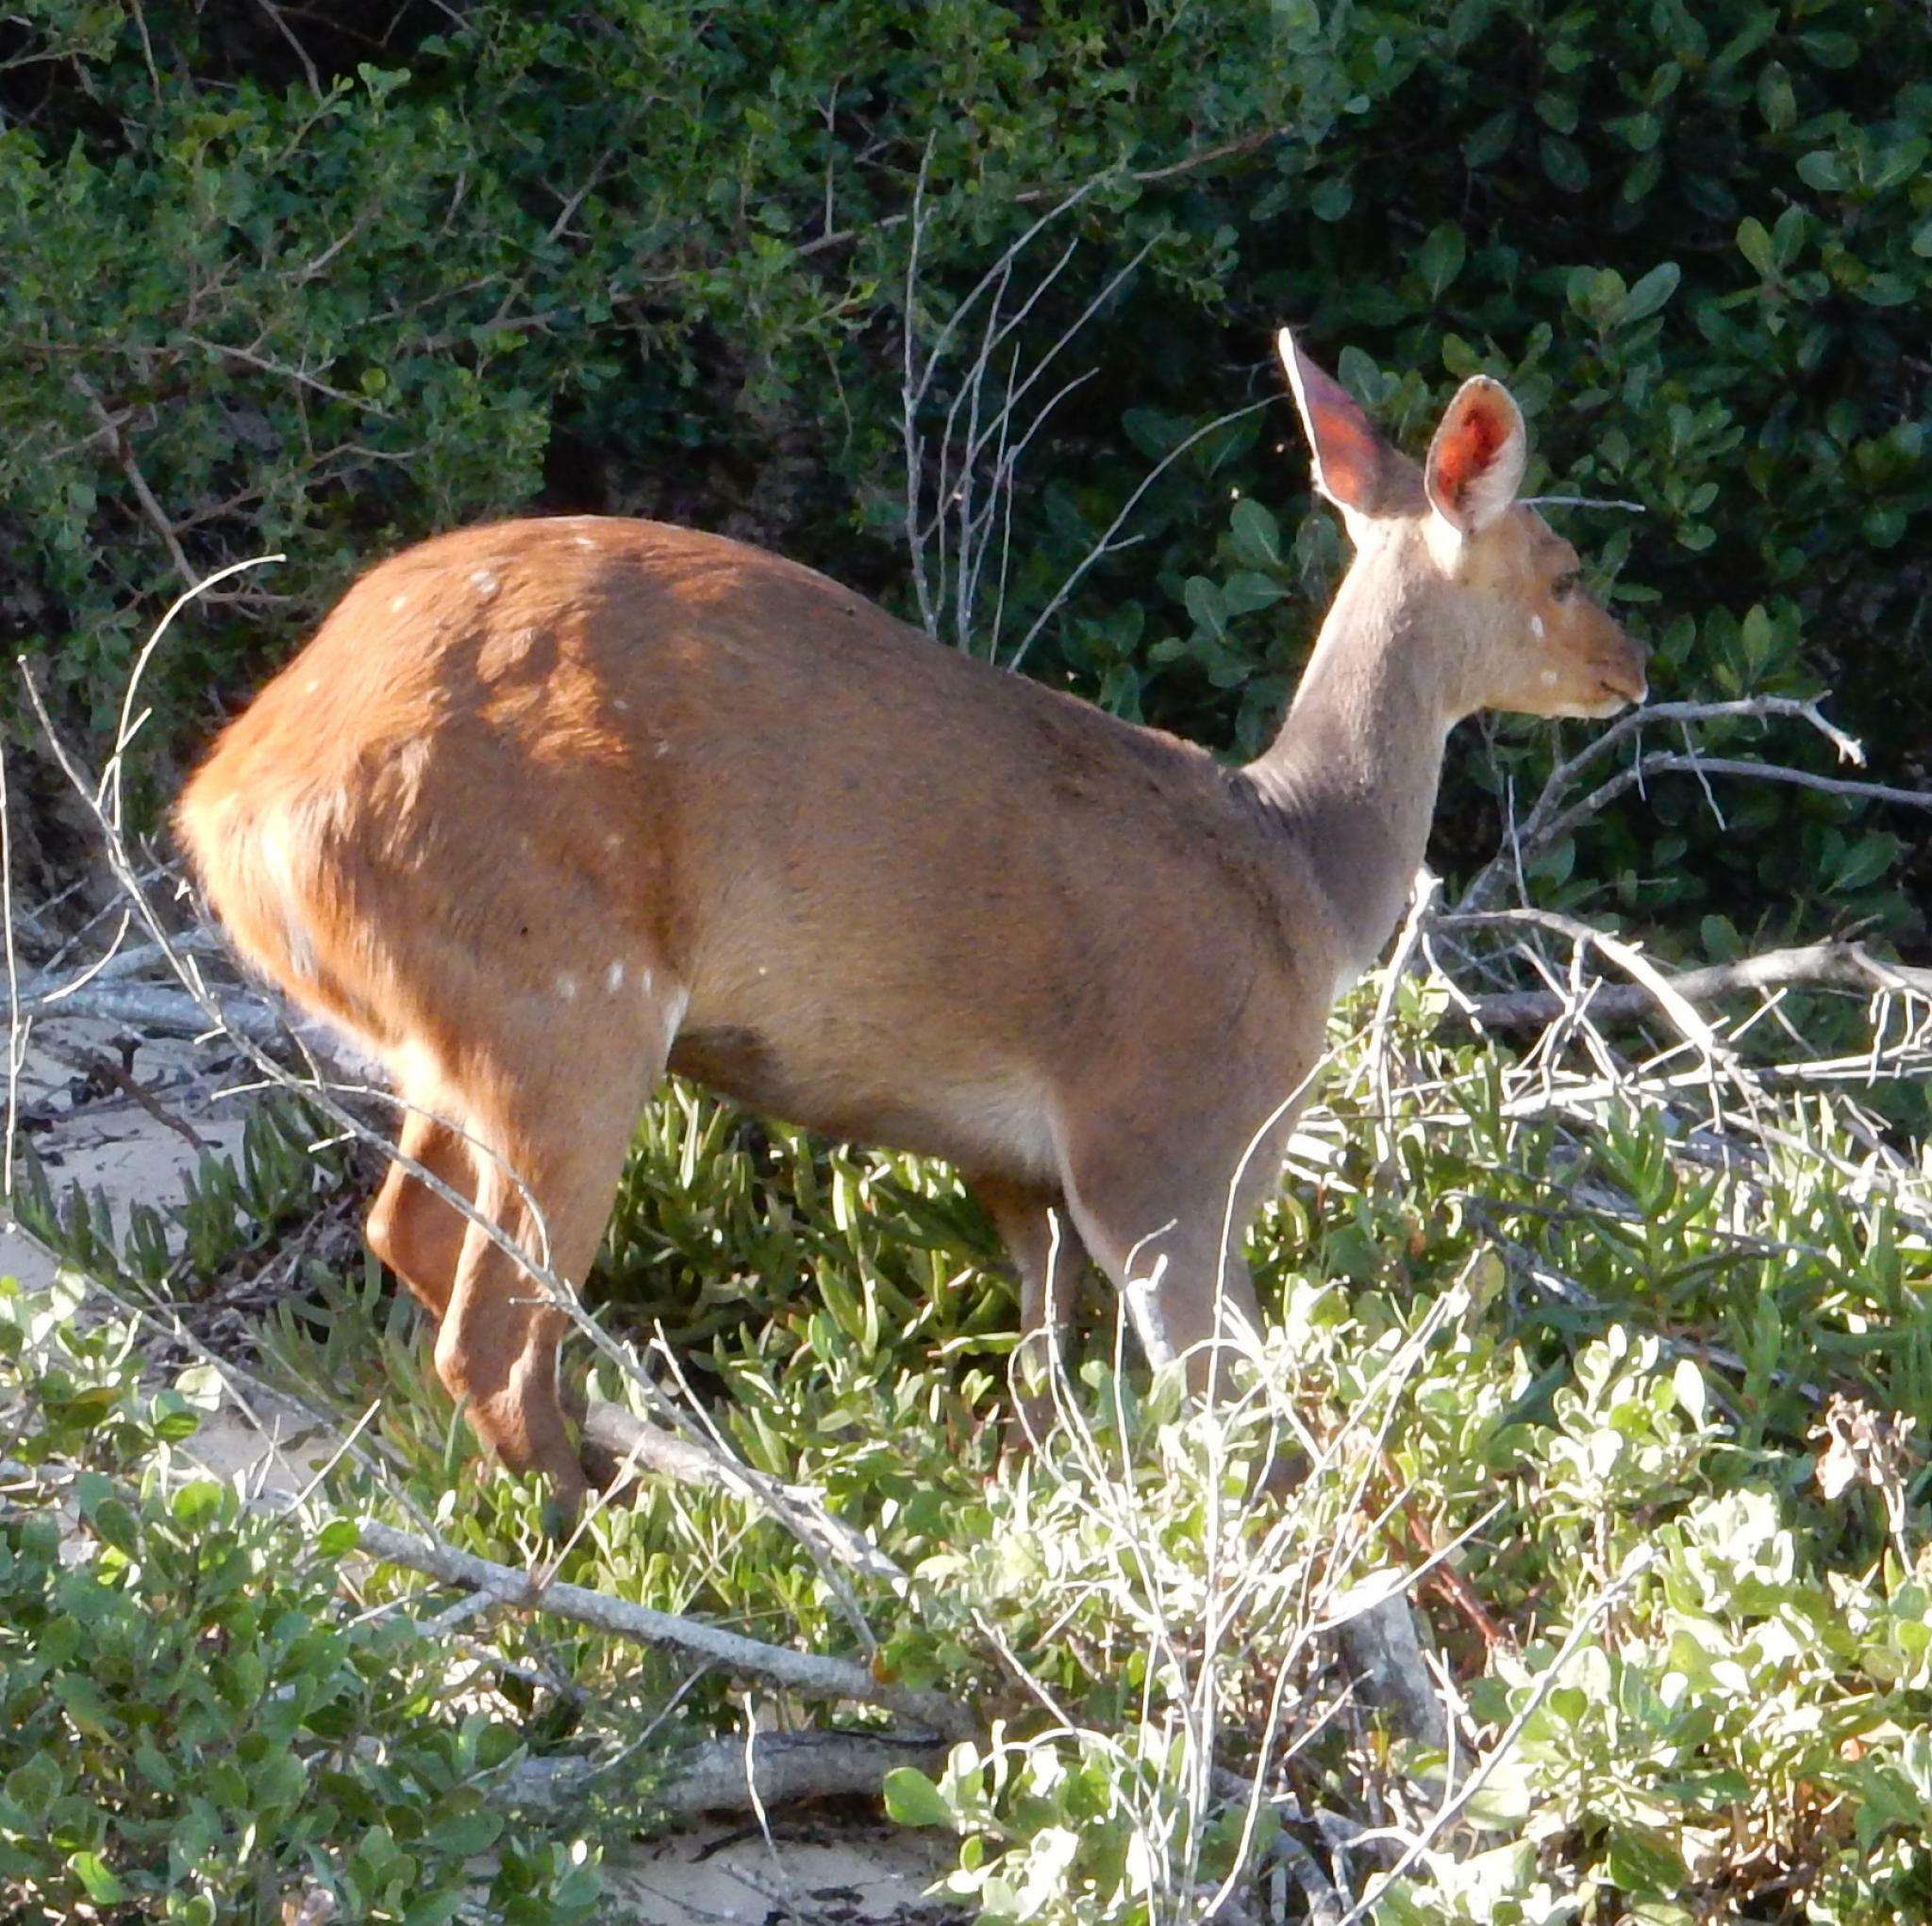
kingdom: Animalia
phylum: Chordata
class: Mammalia
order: Artiodactyla
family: Bovidae
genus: Tragelaphus
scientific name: Tragelaphus scriptus
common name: Bushbuck
